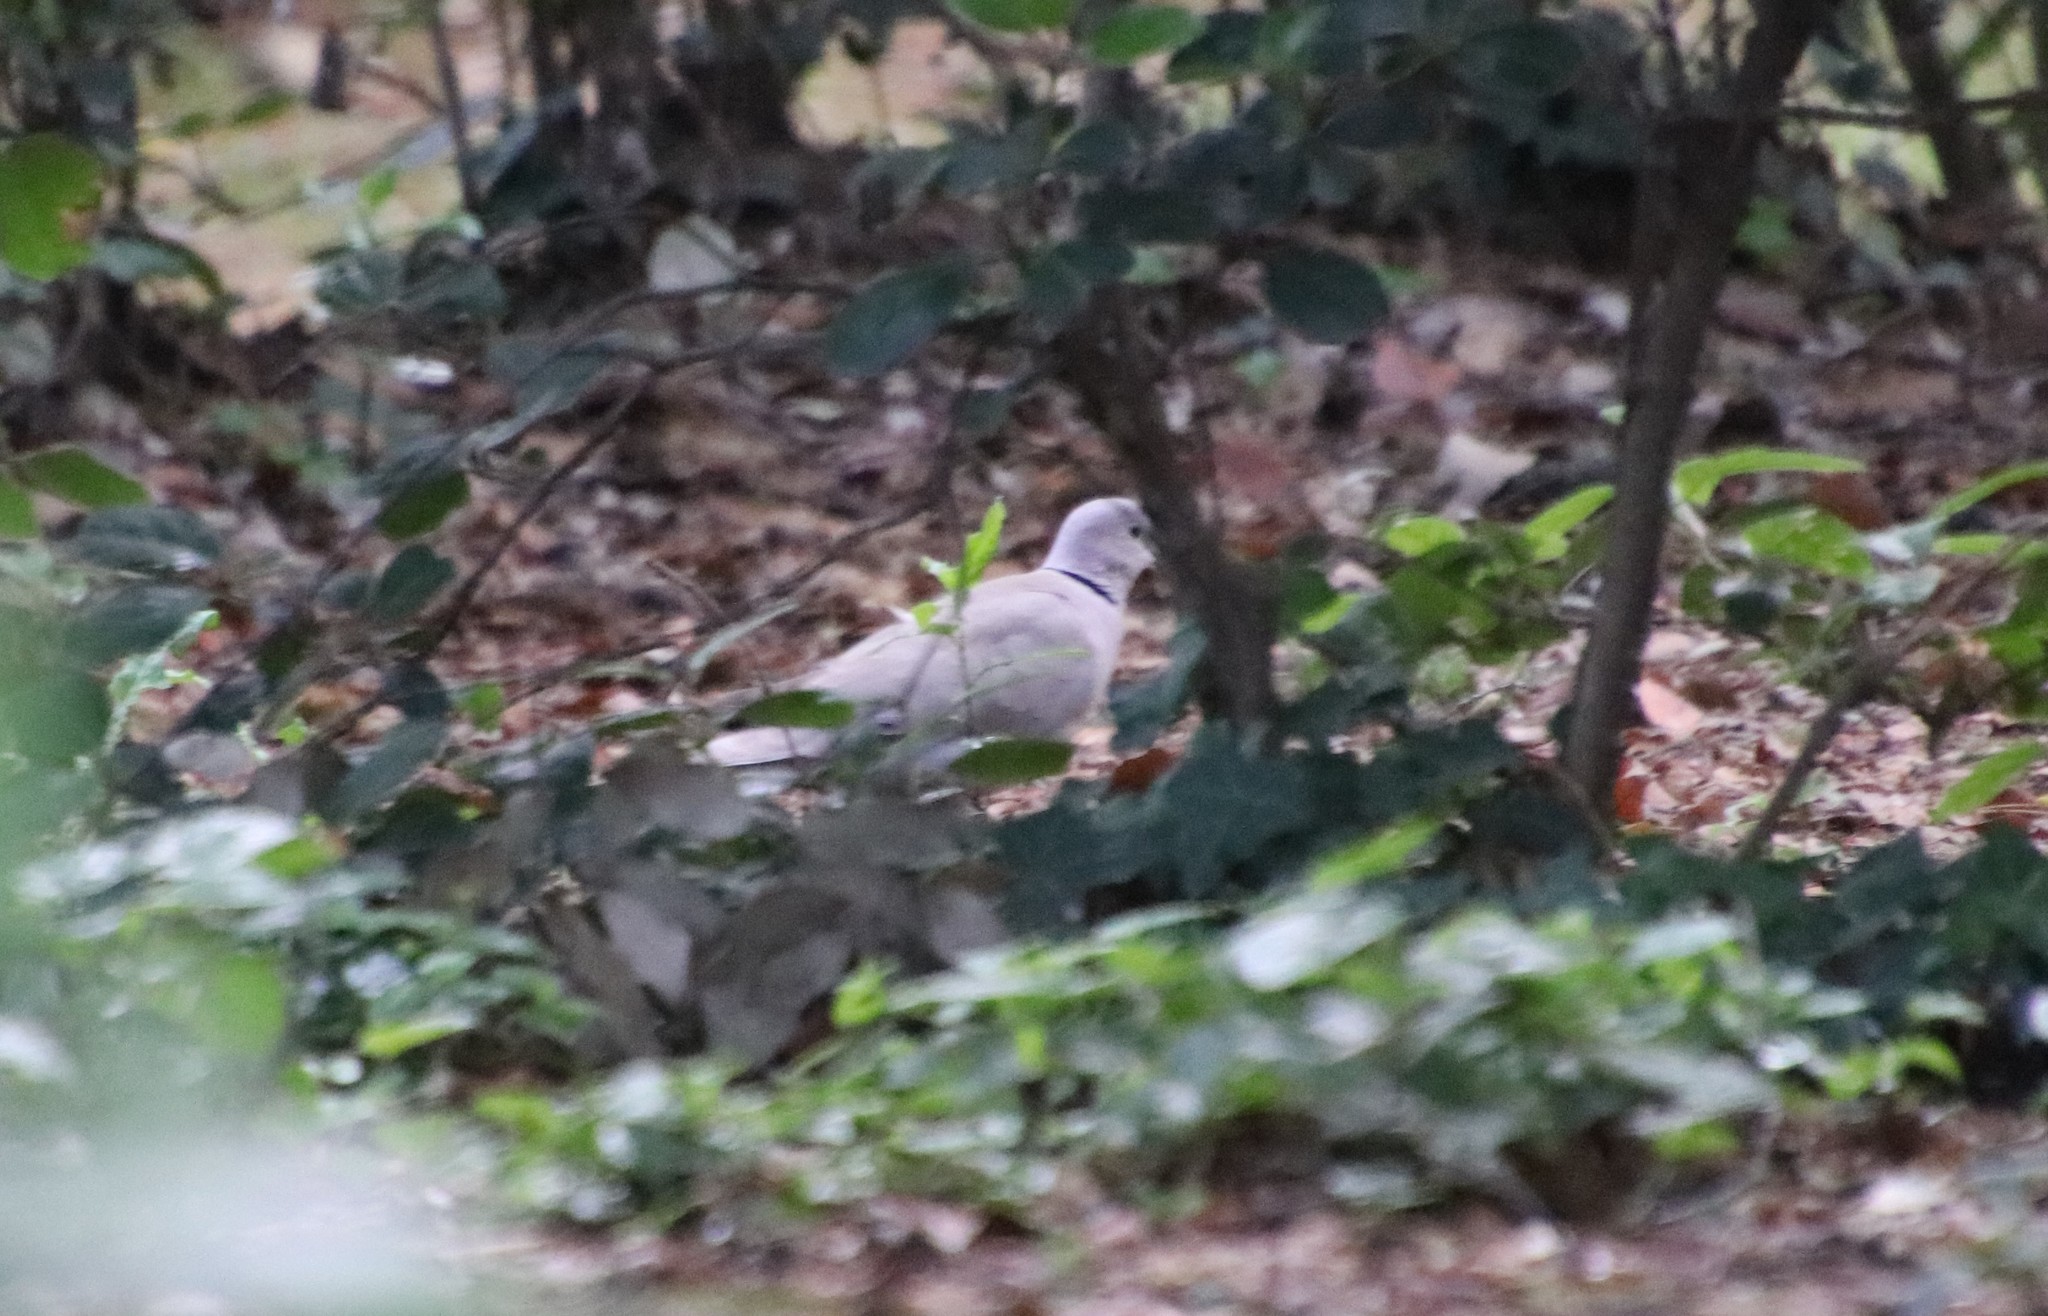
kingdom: Animalia
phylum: Chordata
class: Aves
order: Columbiformes
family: Columbidae
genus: Streptopelia
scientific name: Streptopelia decaocto
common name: Eurasian collared dove
